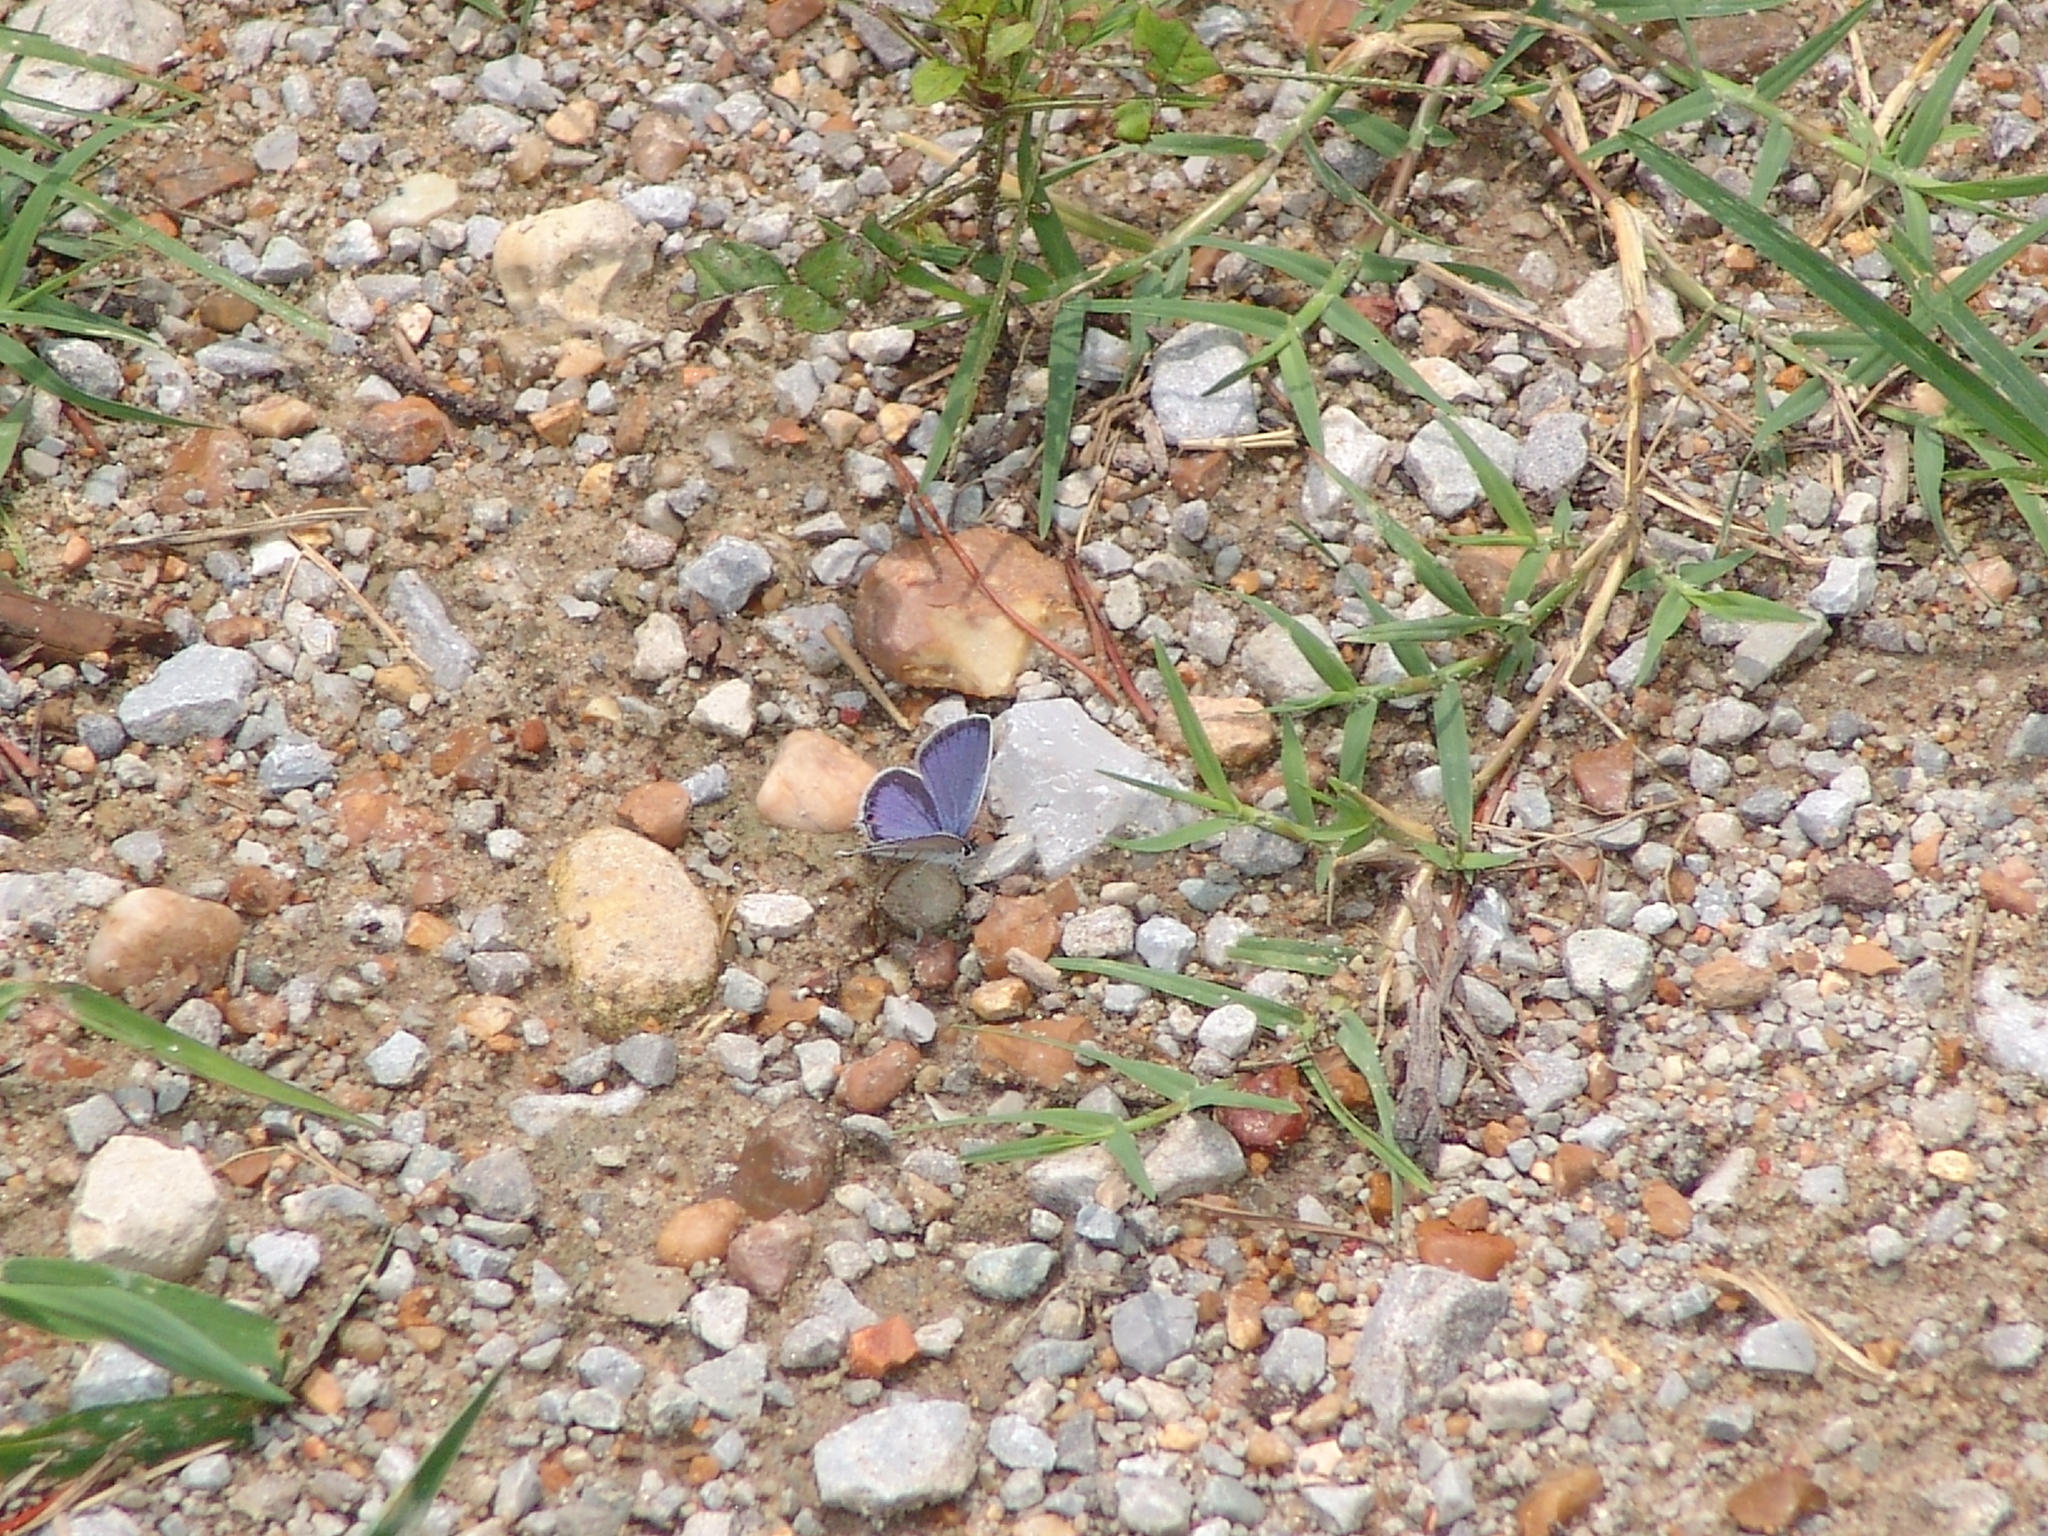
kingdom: Animalia
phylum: Arthropoda
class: Insecta
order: Lepidoptera
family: Lycaenidae
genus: Elkalyce
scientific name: Elkalyce comyntas
